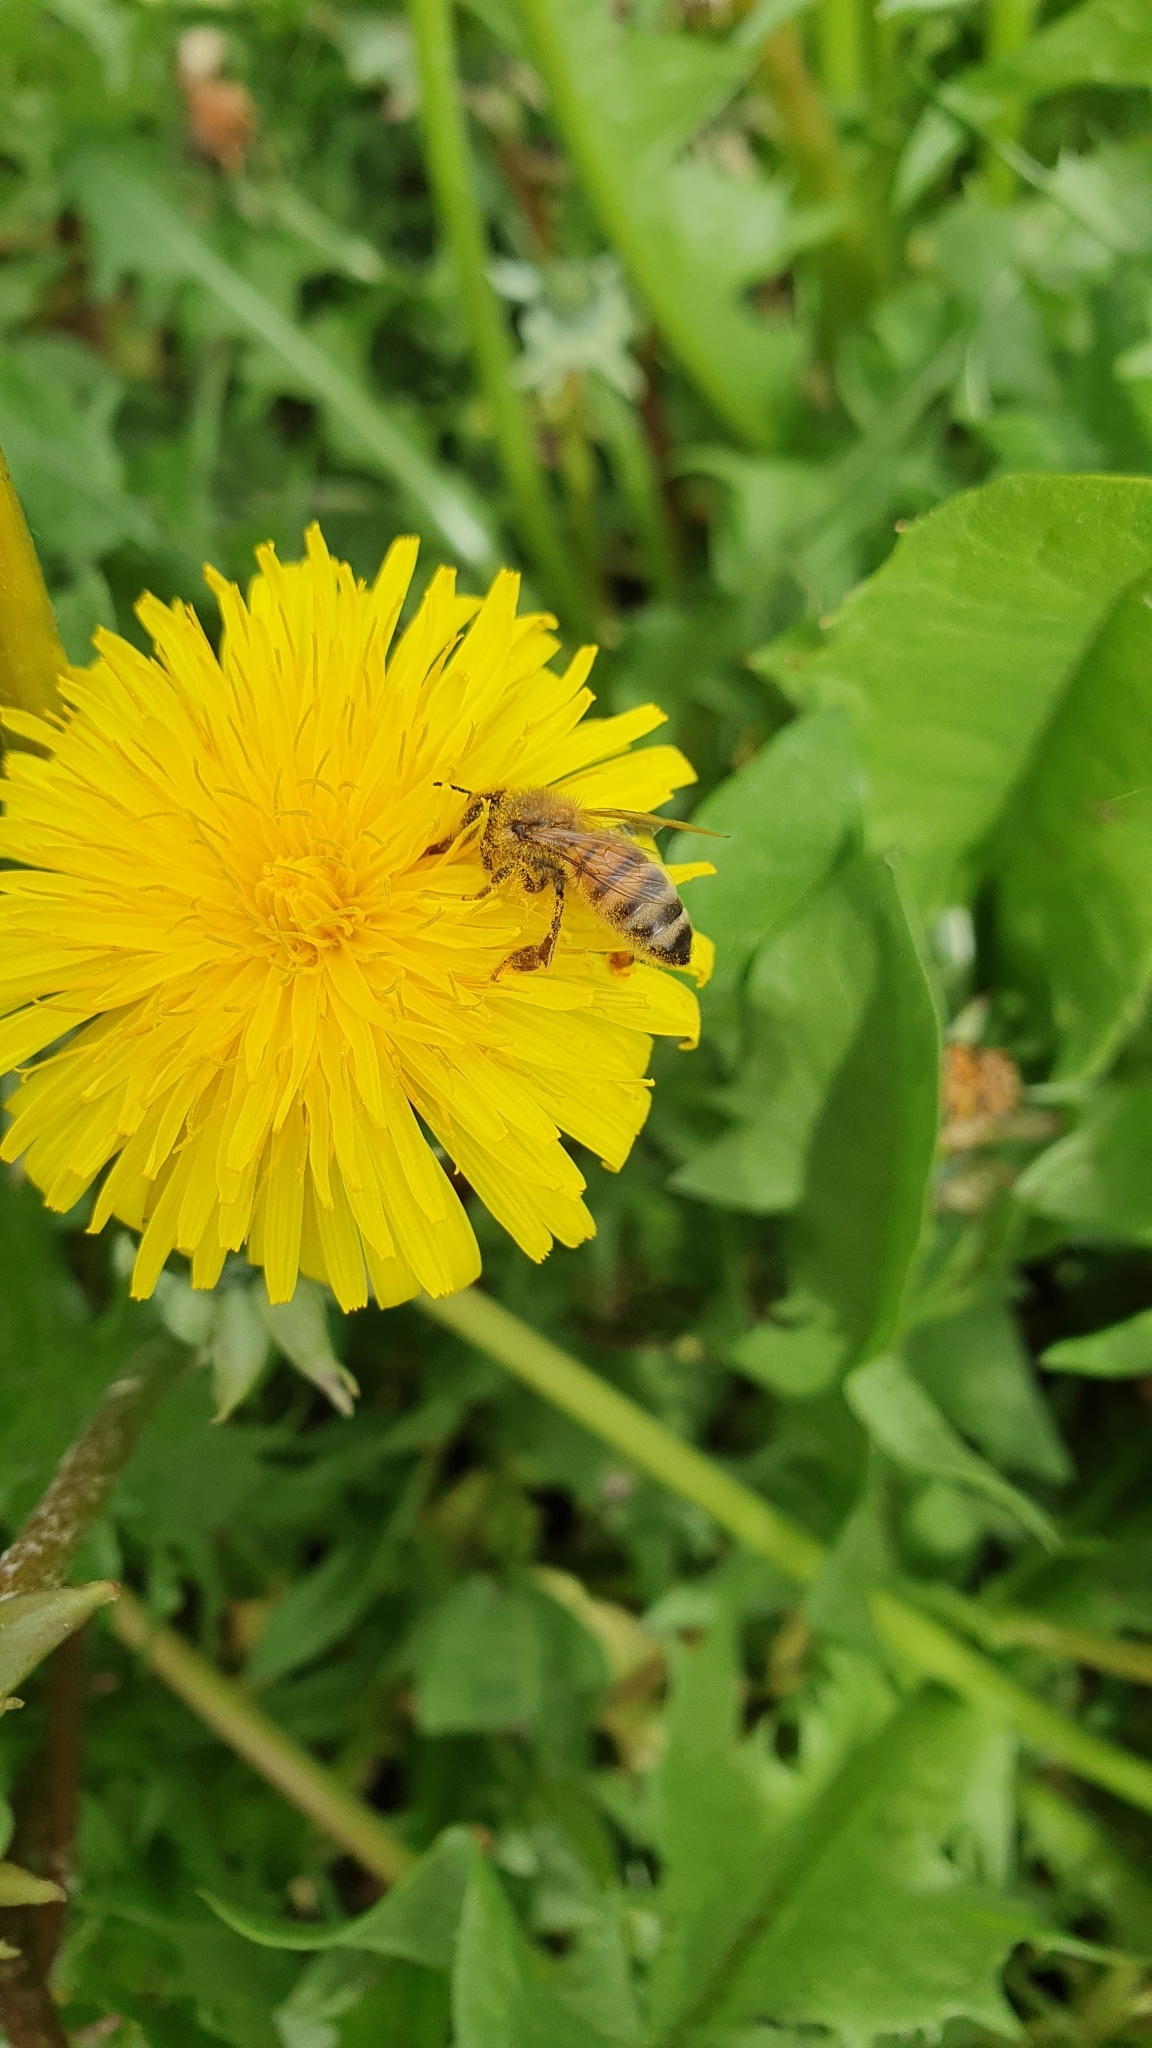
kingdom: Animalia
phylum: Arthropoda
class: Insecta
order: Hymenoptera
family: Apidae
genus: Apis
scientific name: Apis mellifera
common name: Honey bee
